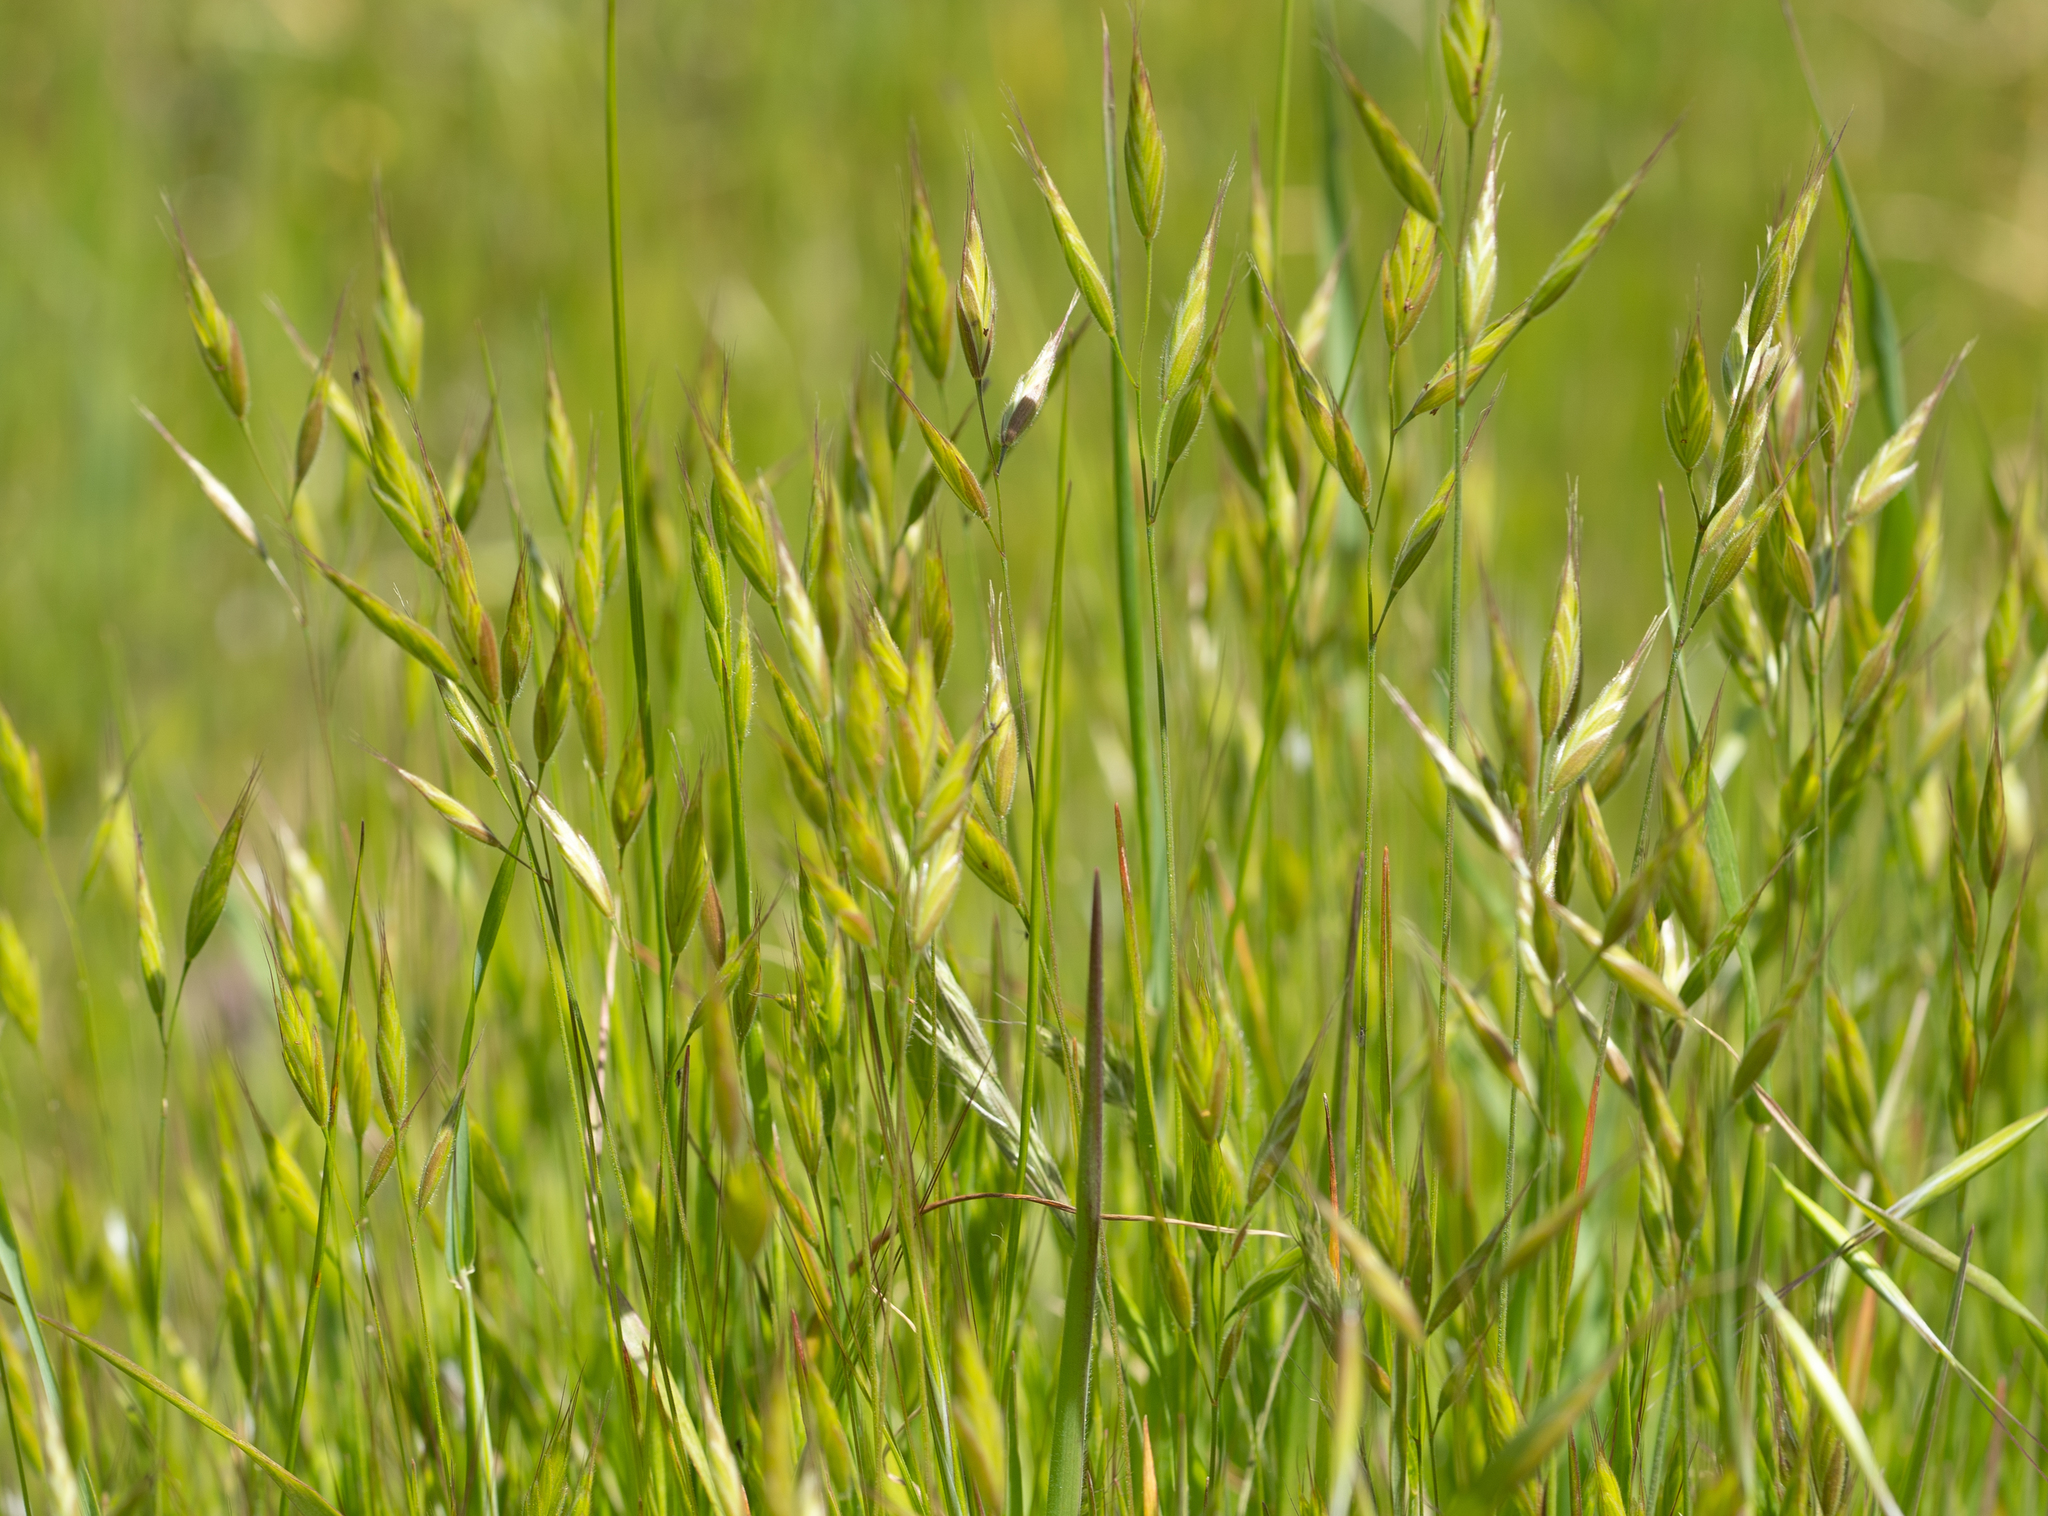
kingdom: Plantae
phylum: Tracheophyta
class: Liliopsida
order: Poales
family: Poaceae
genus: Bromus
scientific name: Bromus hordeaceus
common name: Soft brome
